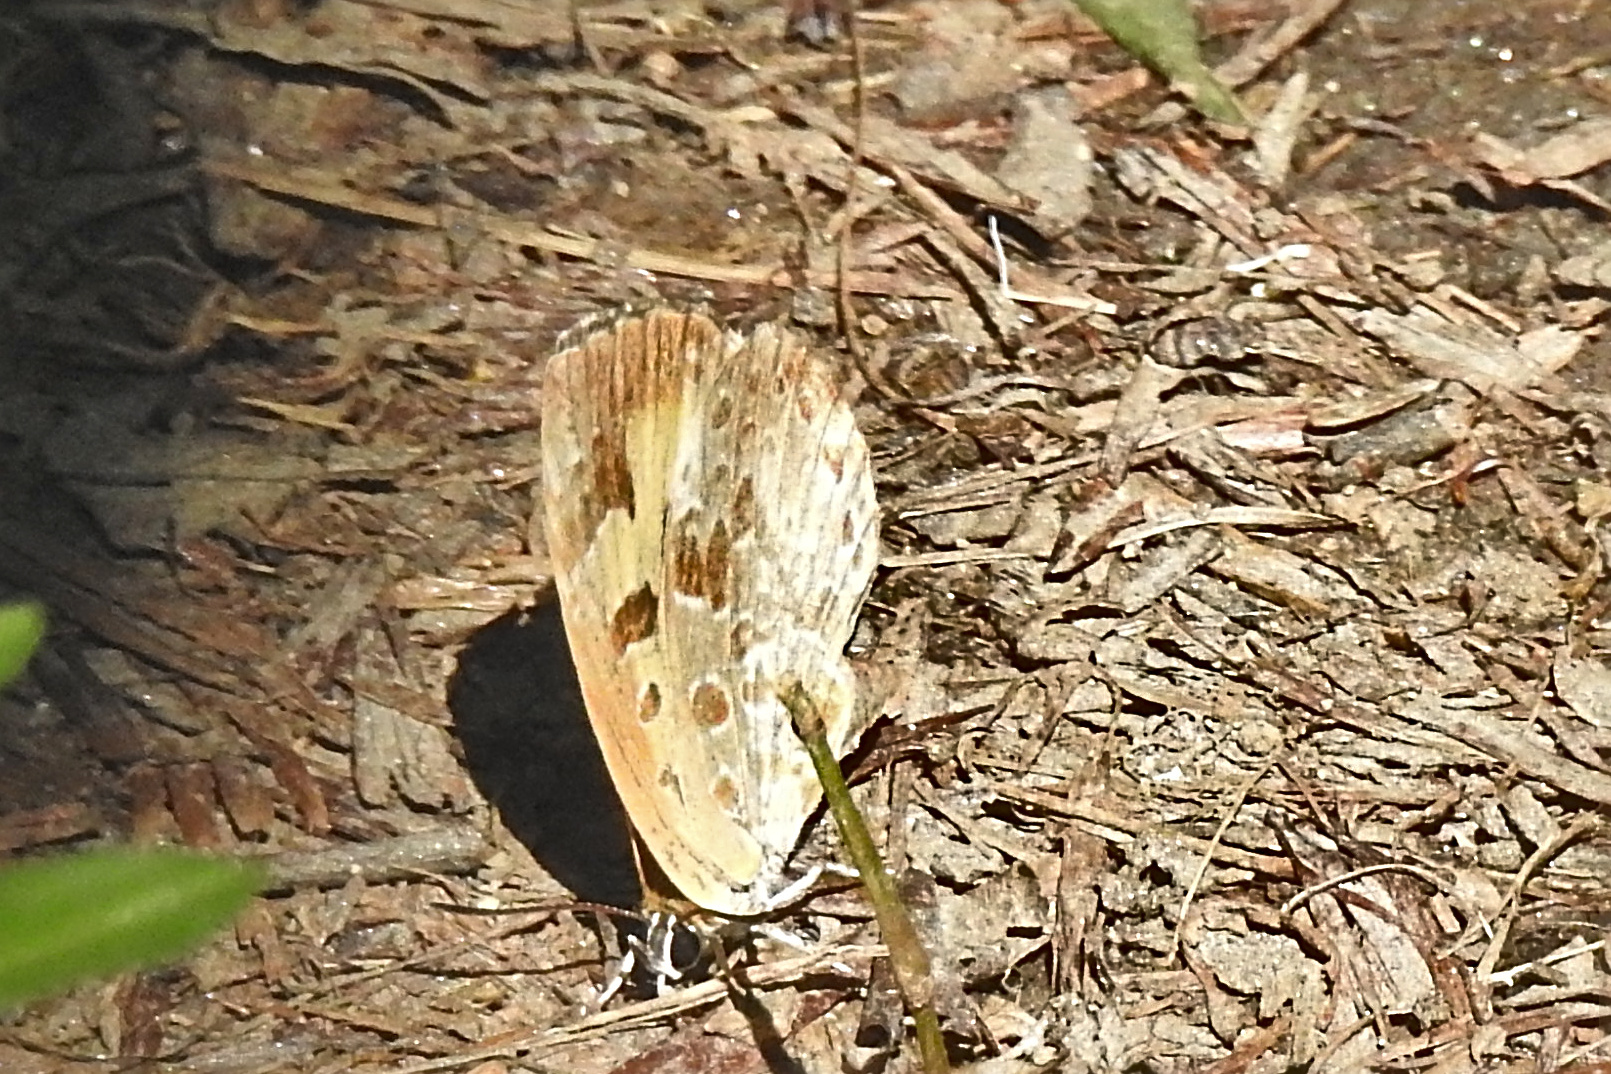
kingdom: Animalia
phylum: Arthropoda
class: Insecta
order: Lepidoptera
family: Lycaenidae
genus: Feniseca
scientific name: Feniseca tarquinius
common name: Harvester
